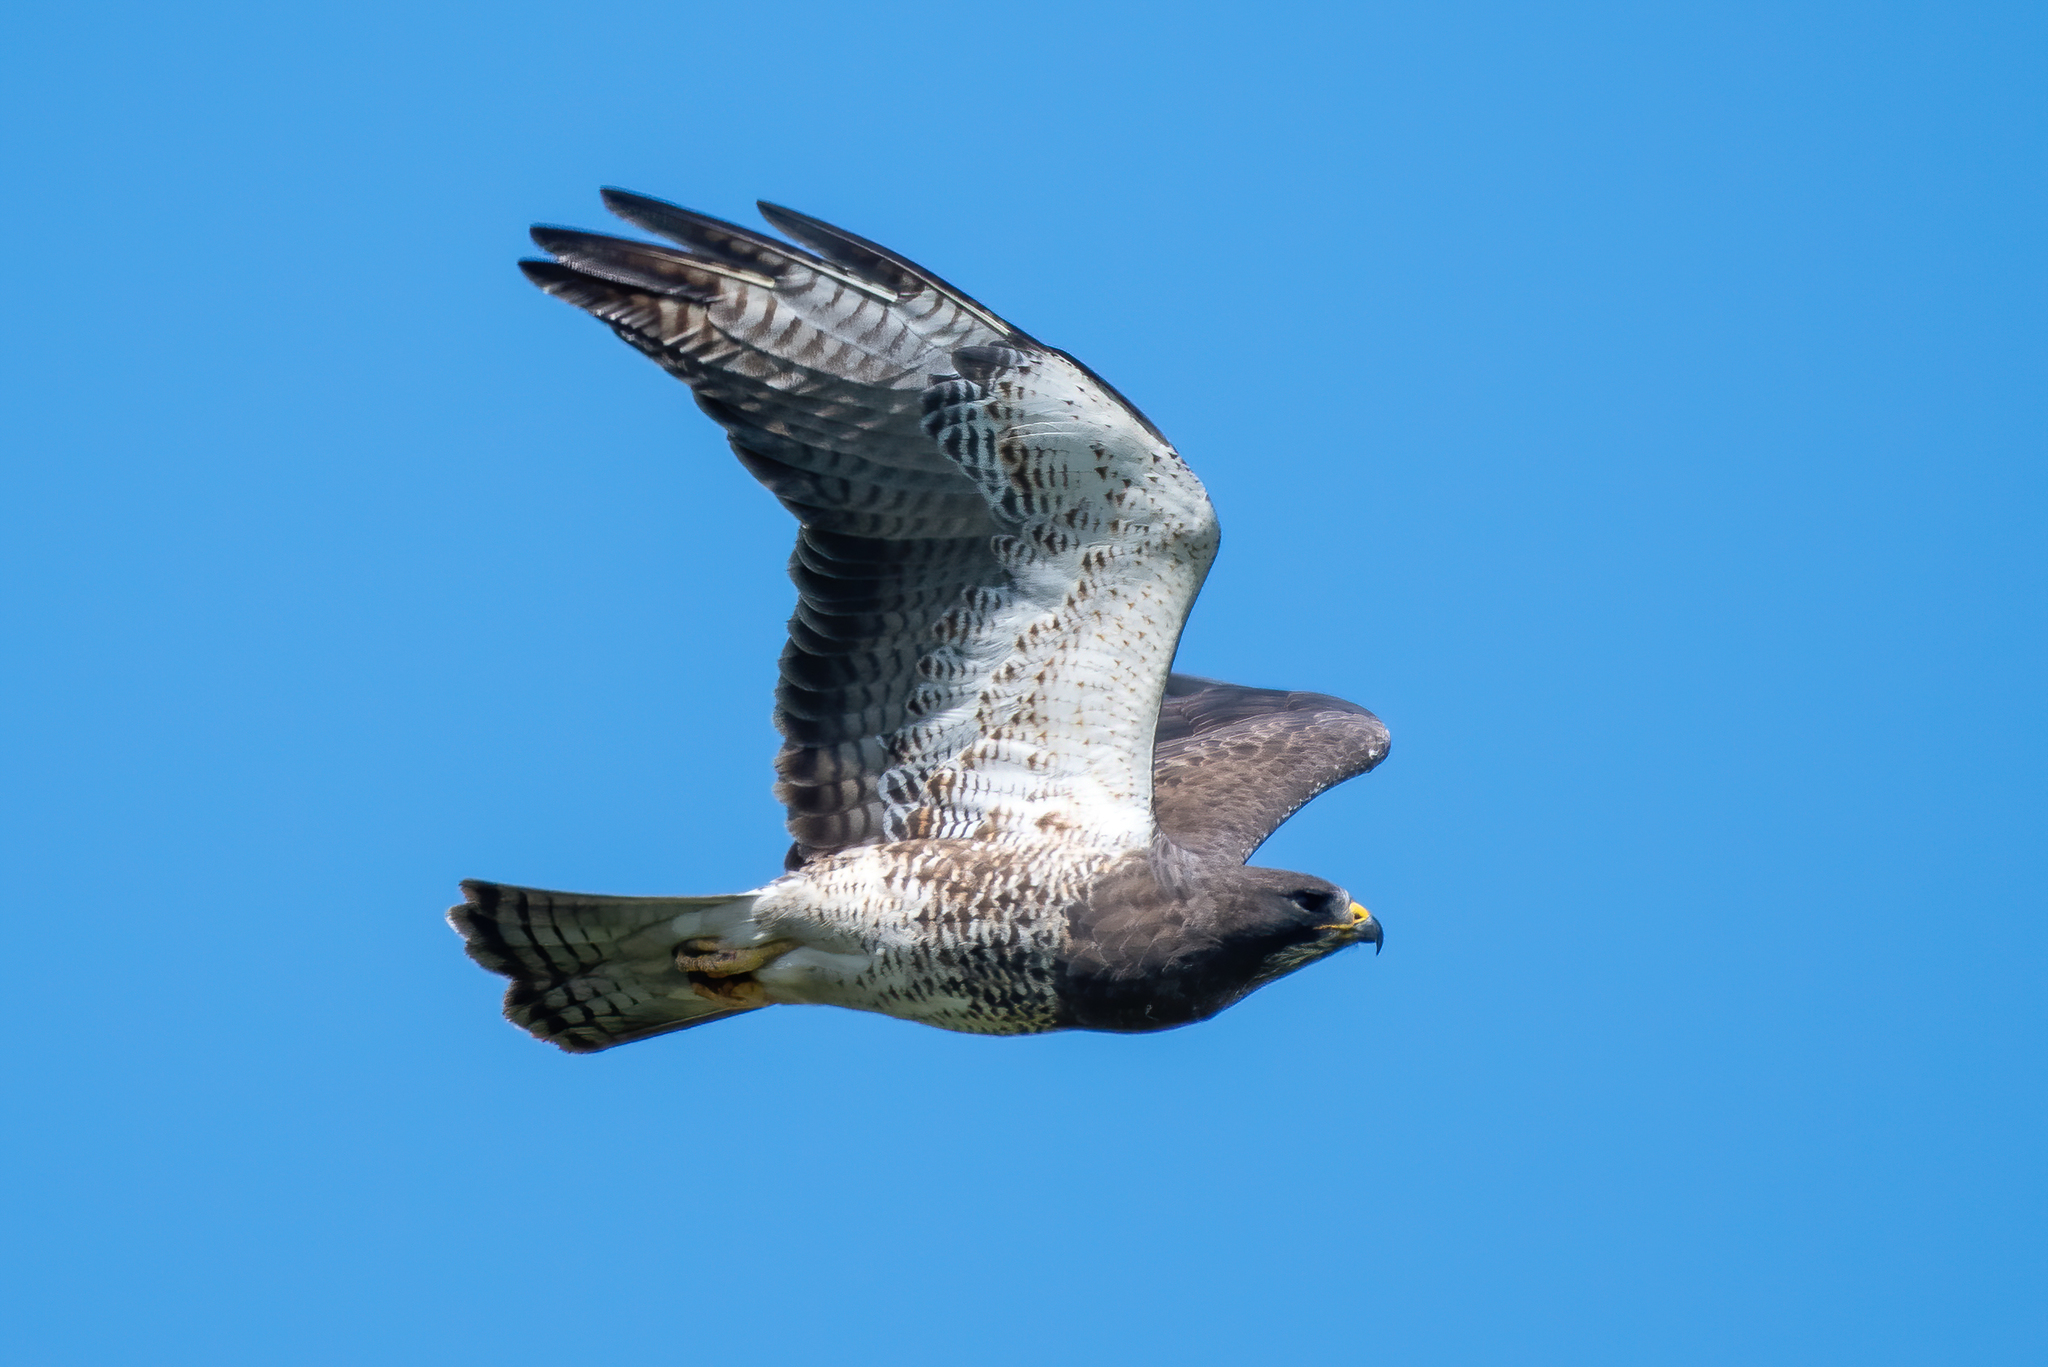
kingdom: Animalia
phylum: Chordata
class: Aves
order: Accipitriformes
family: Accipitridae
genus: Buteo
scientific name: Buteo swainsoni
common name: Swainson's hawk
